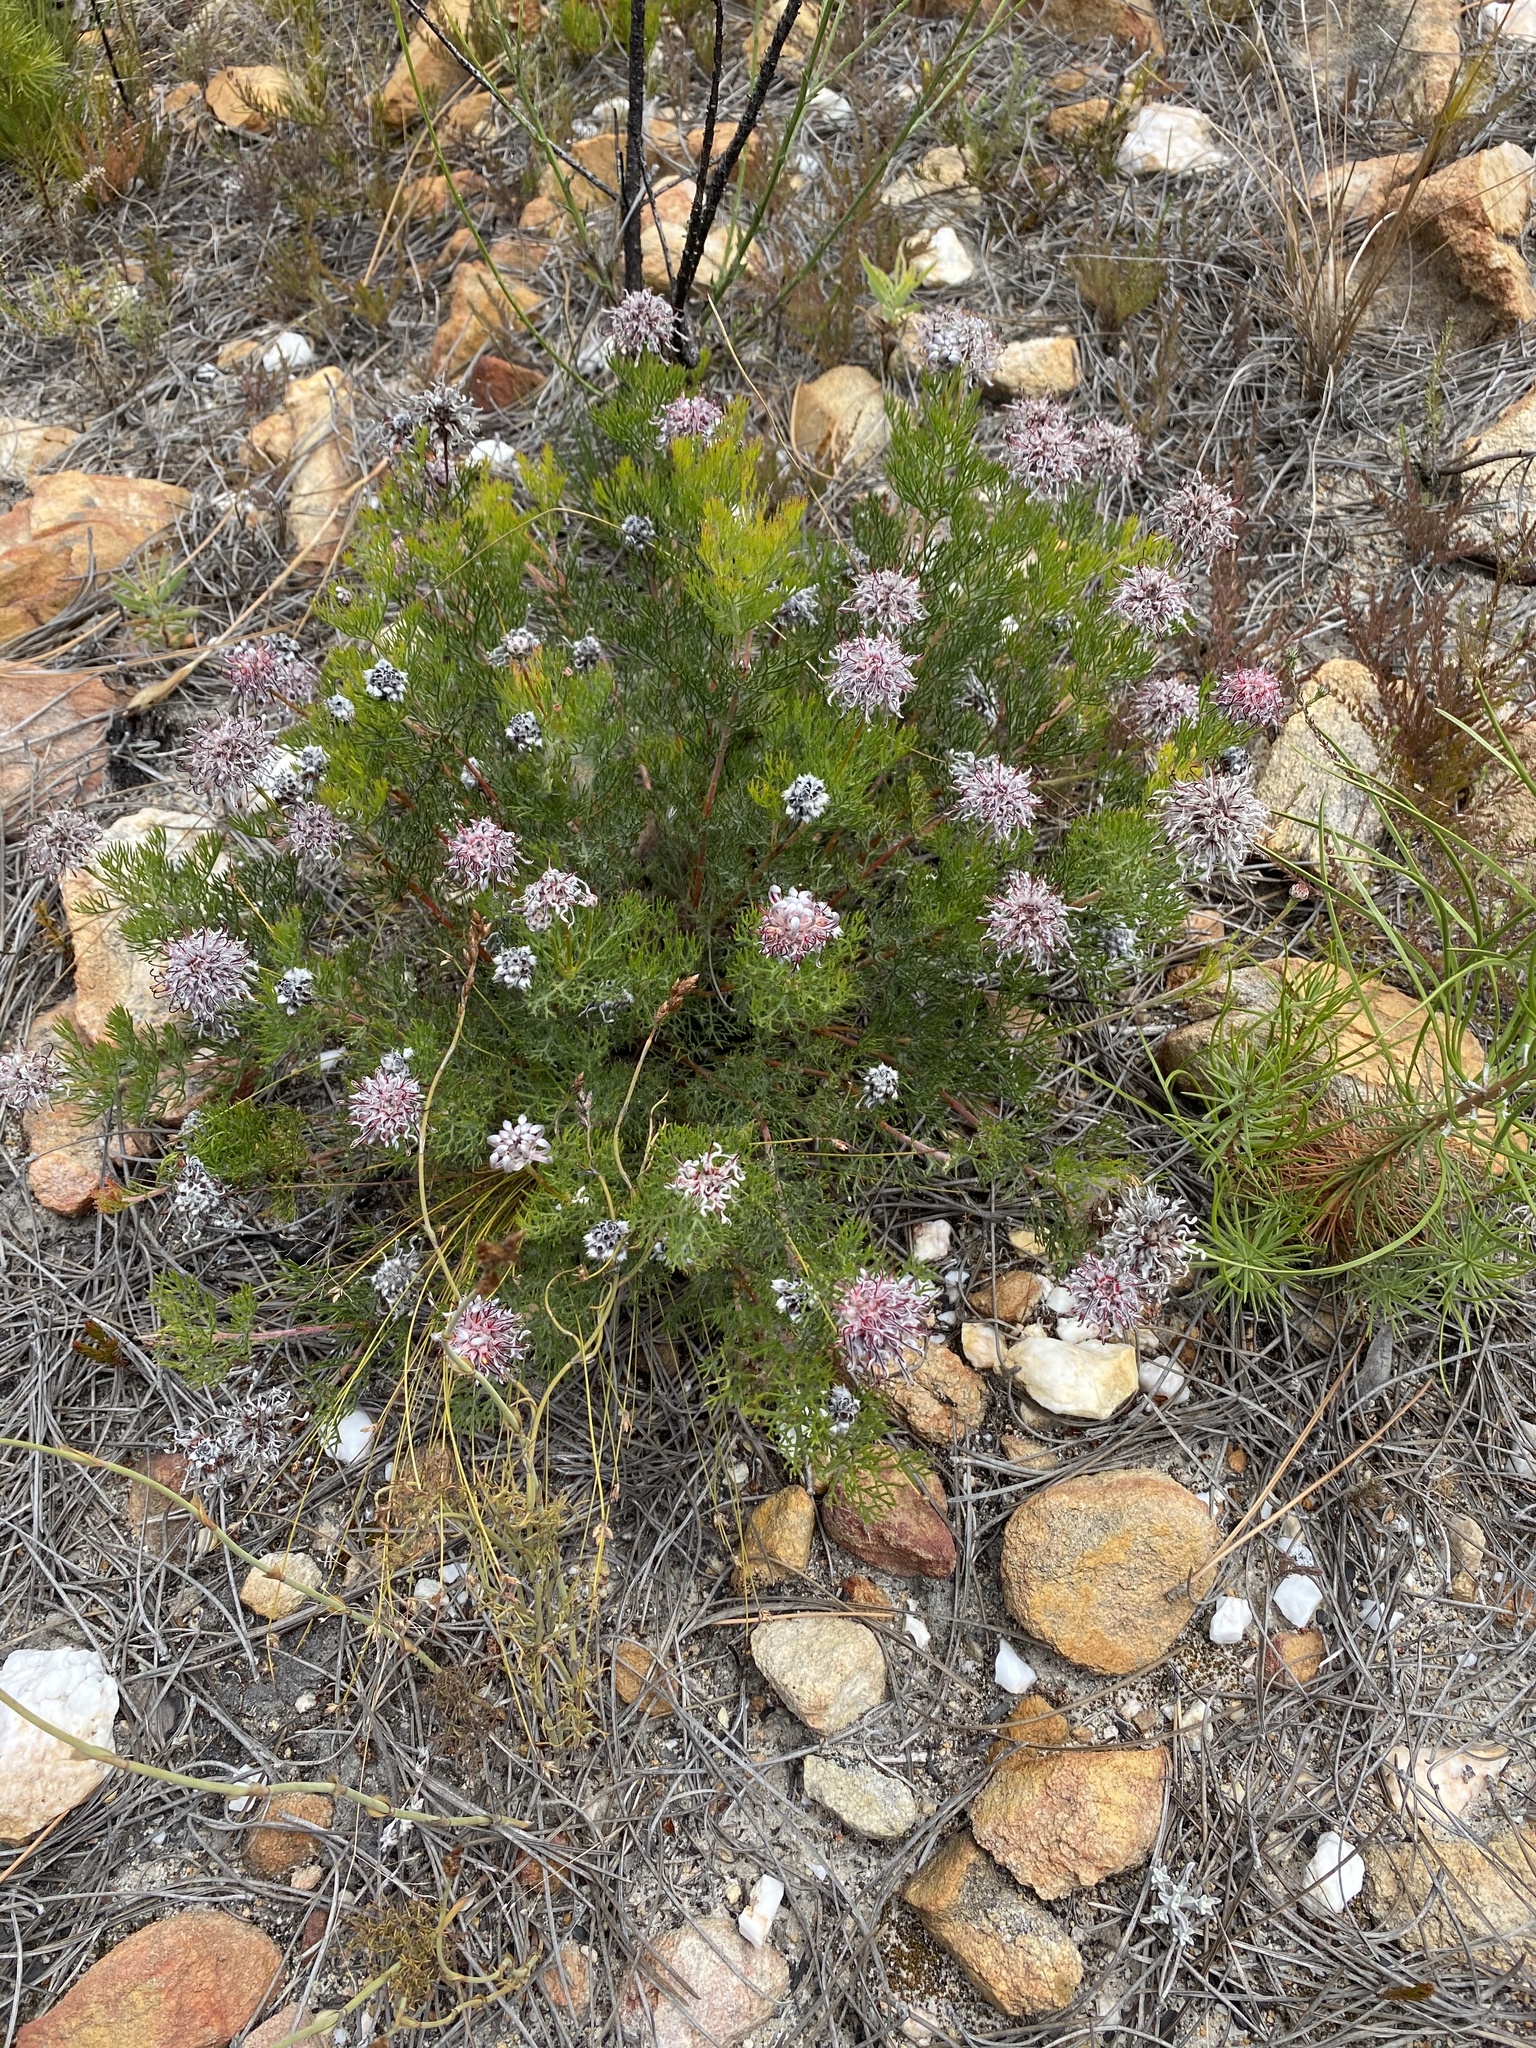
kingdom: Plantae
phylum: Tracheophyta
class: Magnoliopsida
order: Proteales
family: Proteaceae
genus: Serruria
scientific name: Serruria gremialis
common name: Riviersonderend spiderhead
